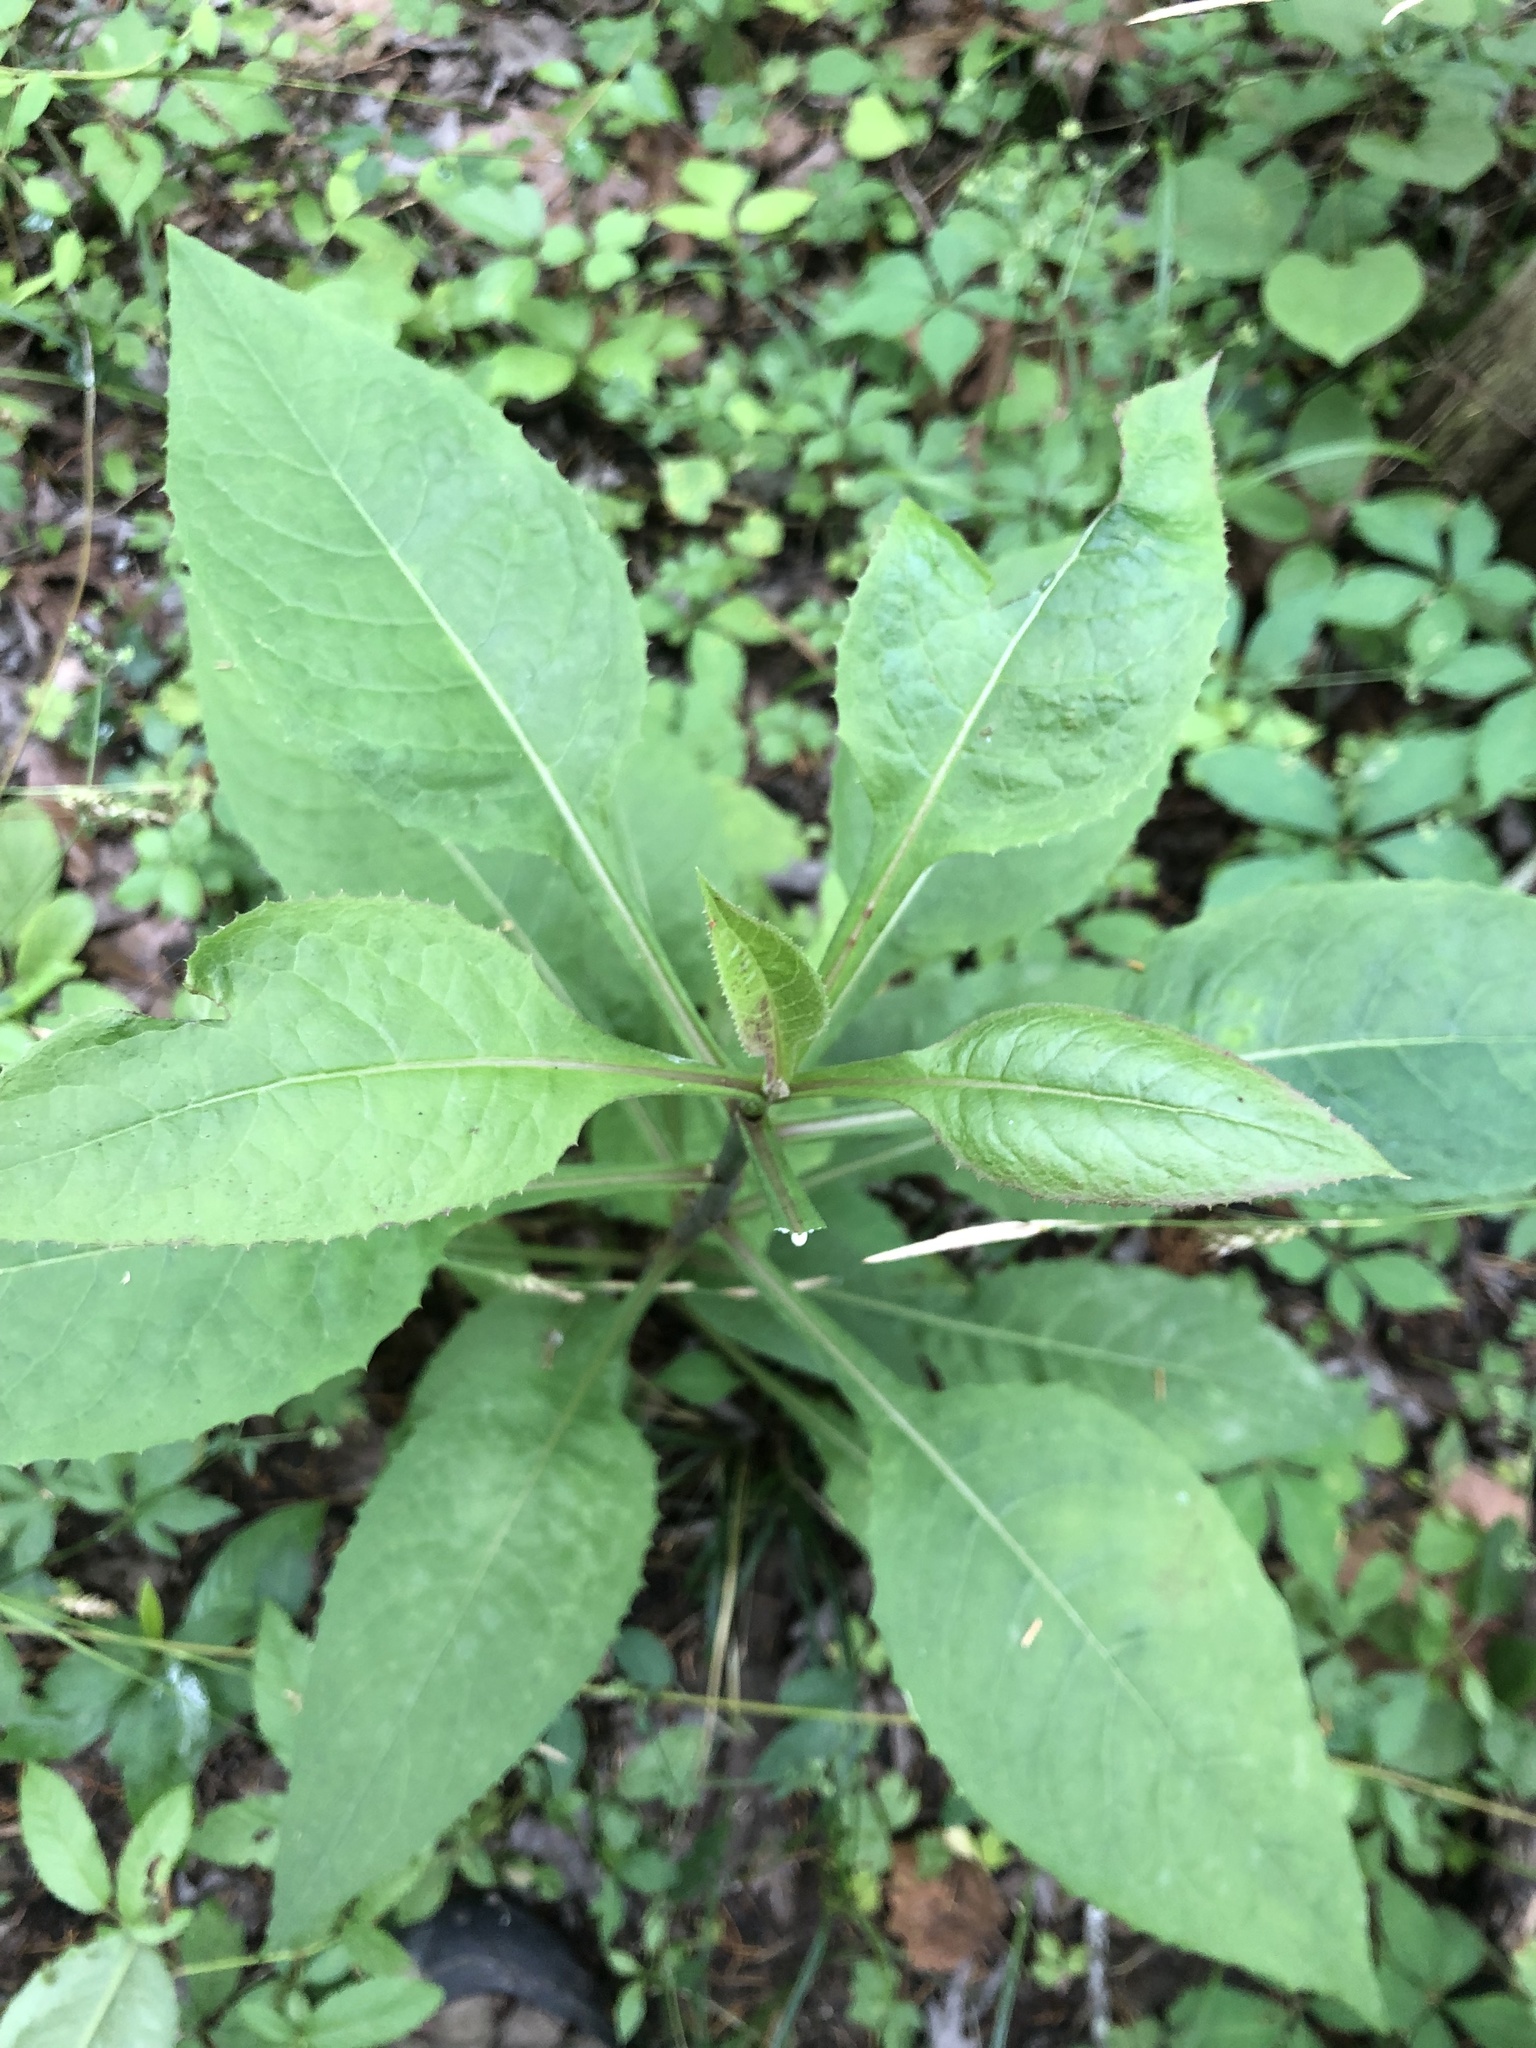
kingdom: Plantae
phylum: Tracheophyta
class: Magnoliopsida
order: Asterales
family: Asteraceae
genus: Lactuca
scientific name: Lactuca floridana
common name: Woodland lettuce
